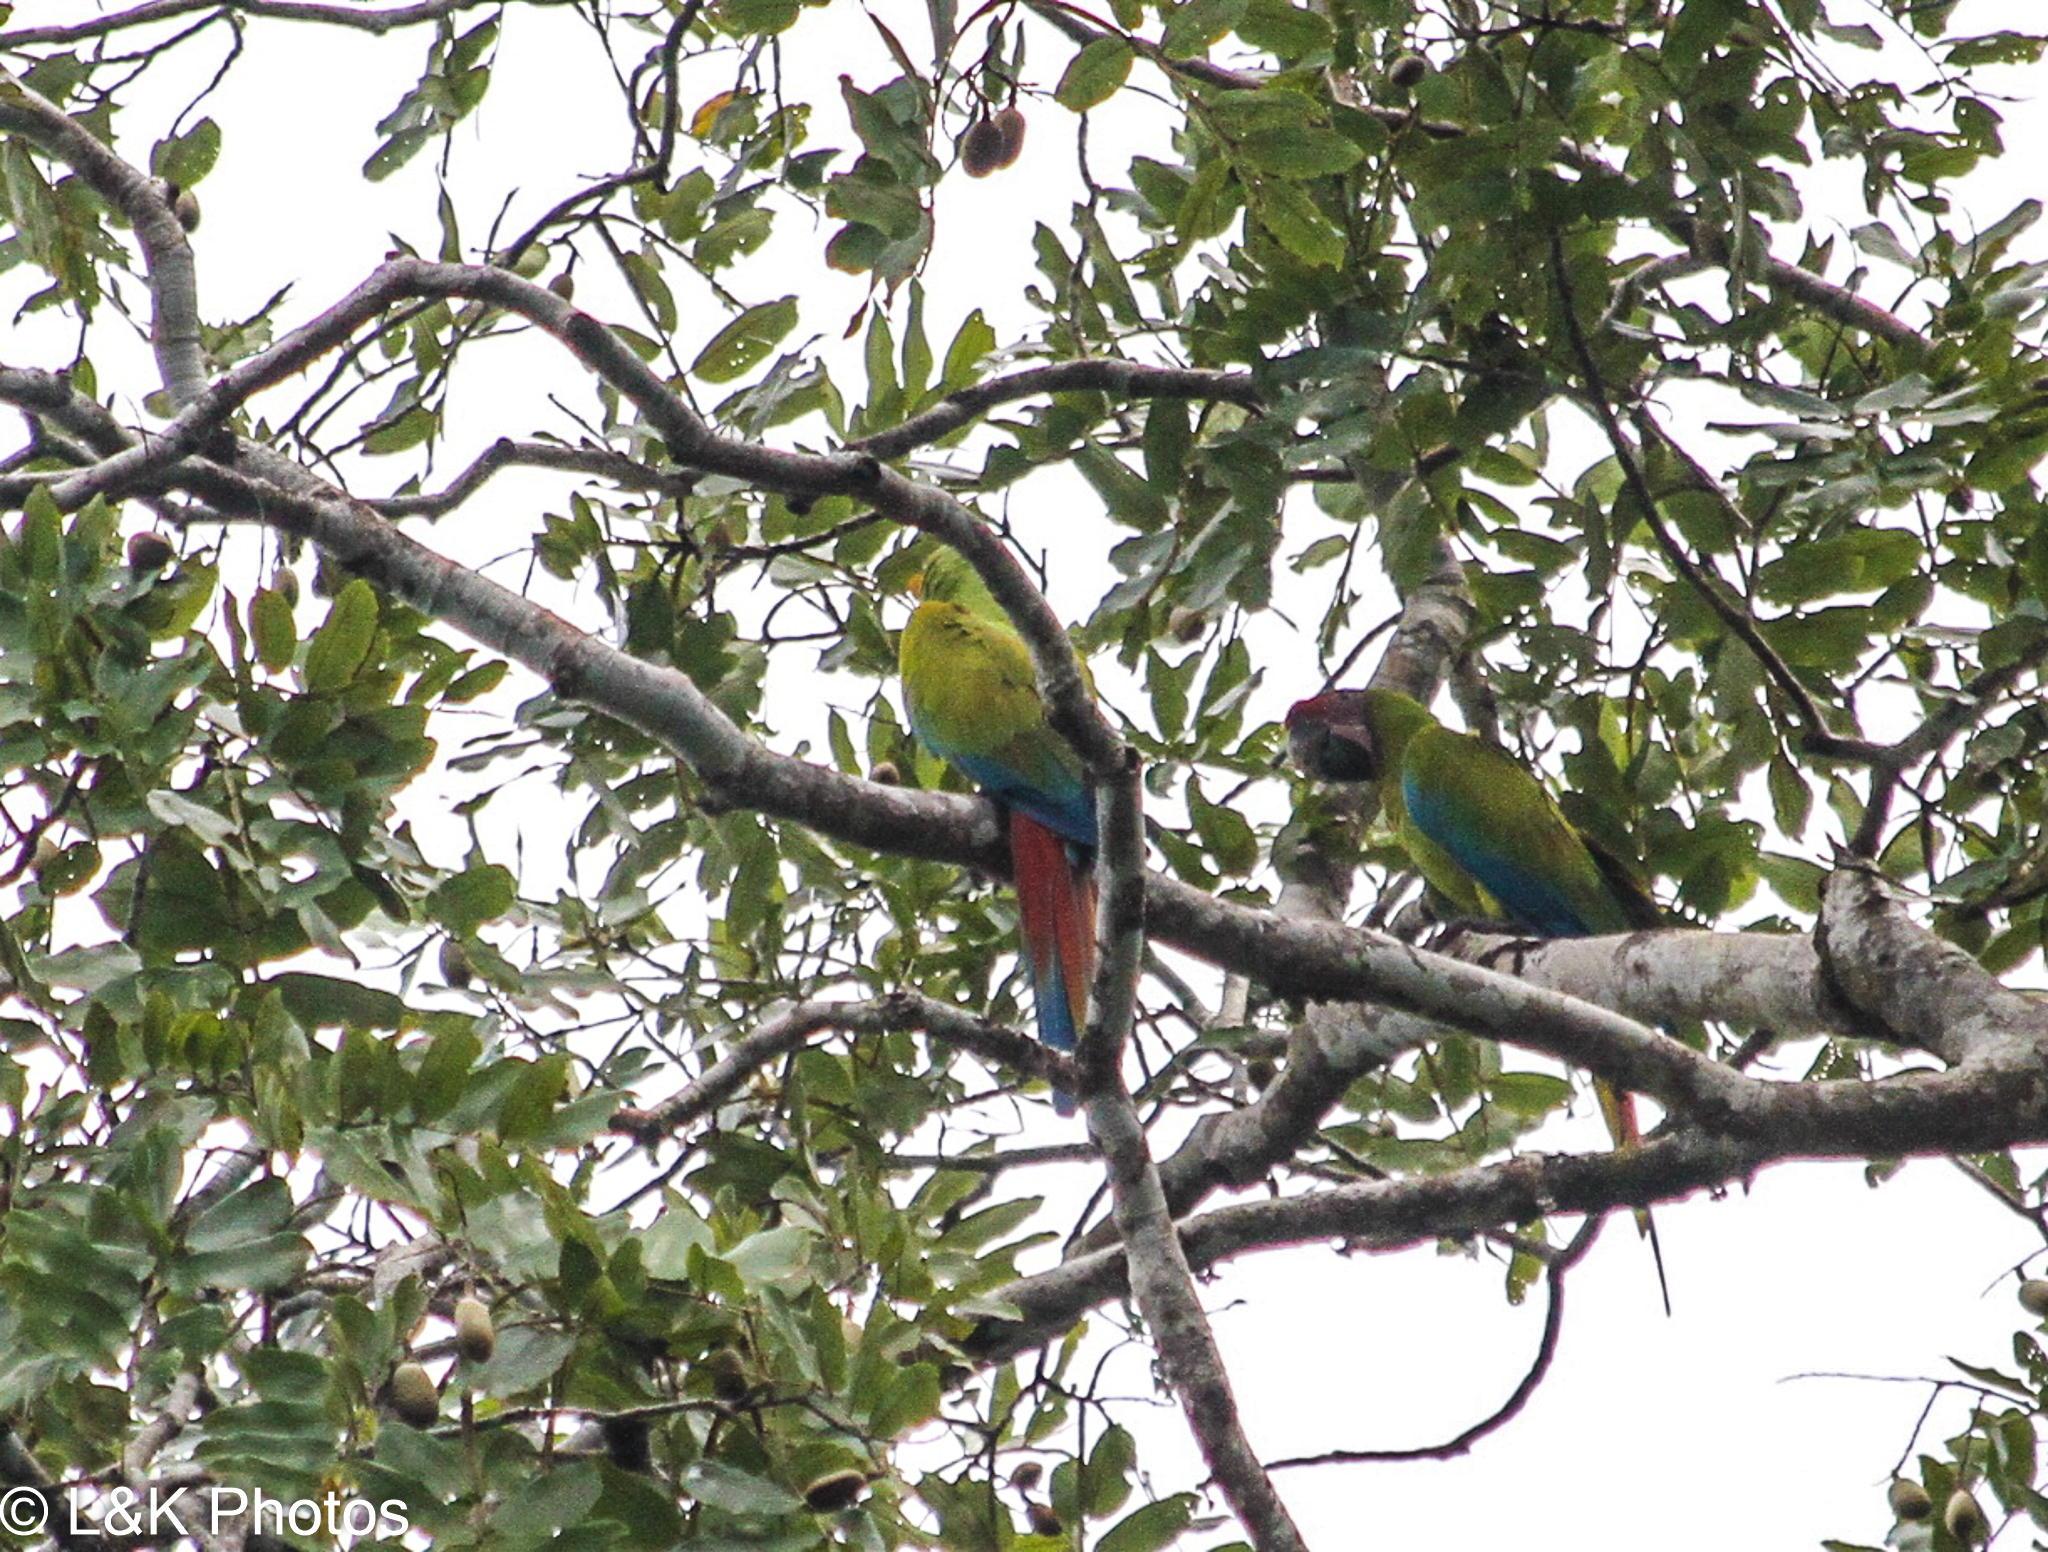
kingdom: Animalia
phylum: Chordata
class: Aves
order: Psittaciformes
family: Psittacidae
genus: Ara
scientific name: Ara ambiguus
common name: Great green macaw
